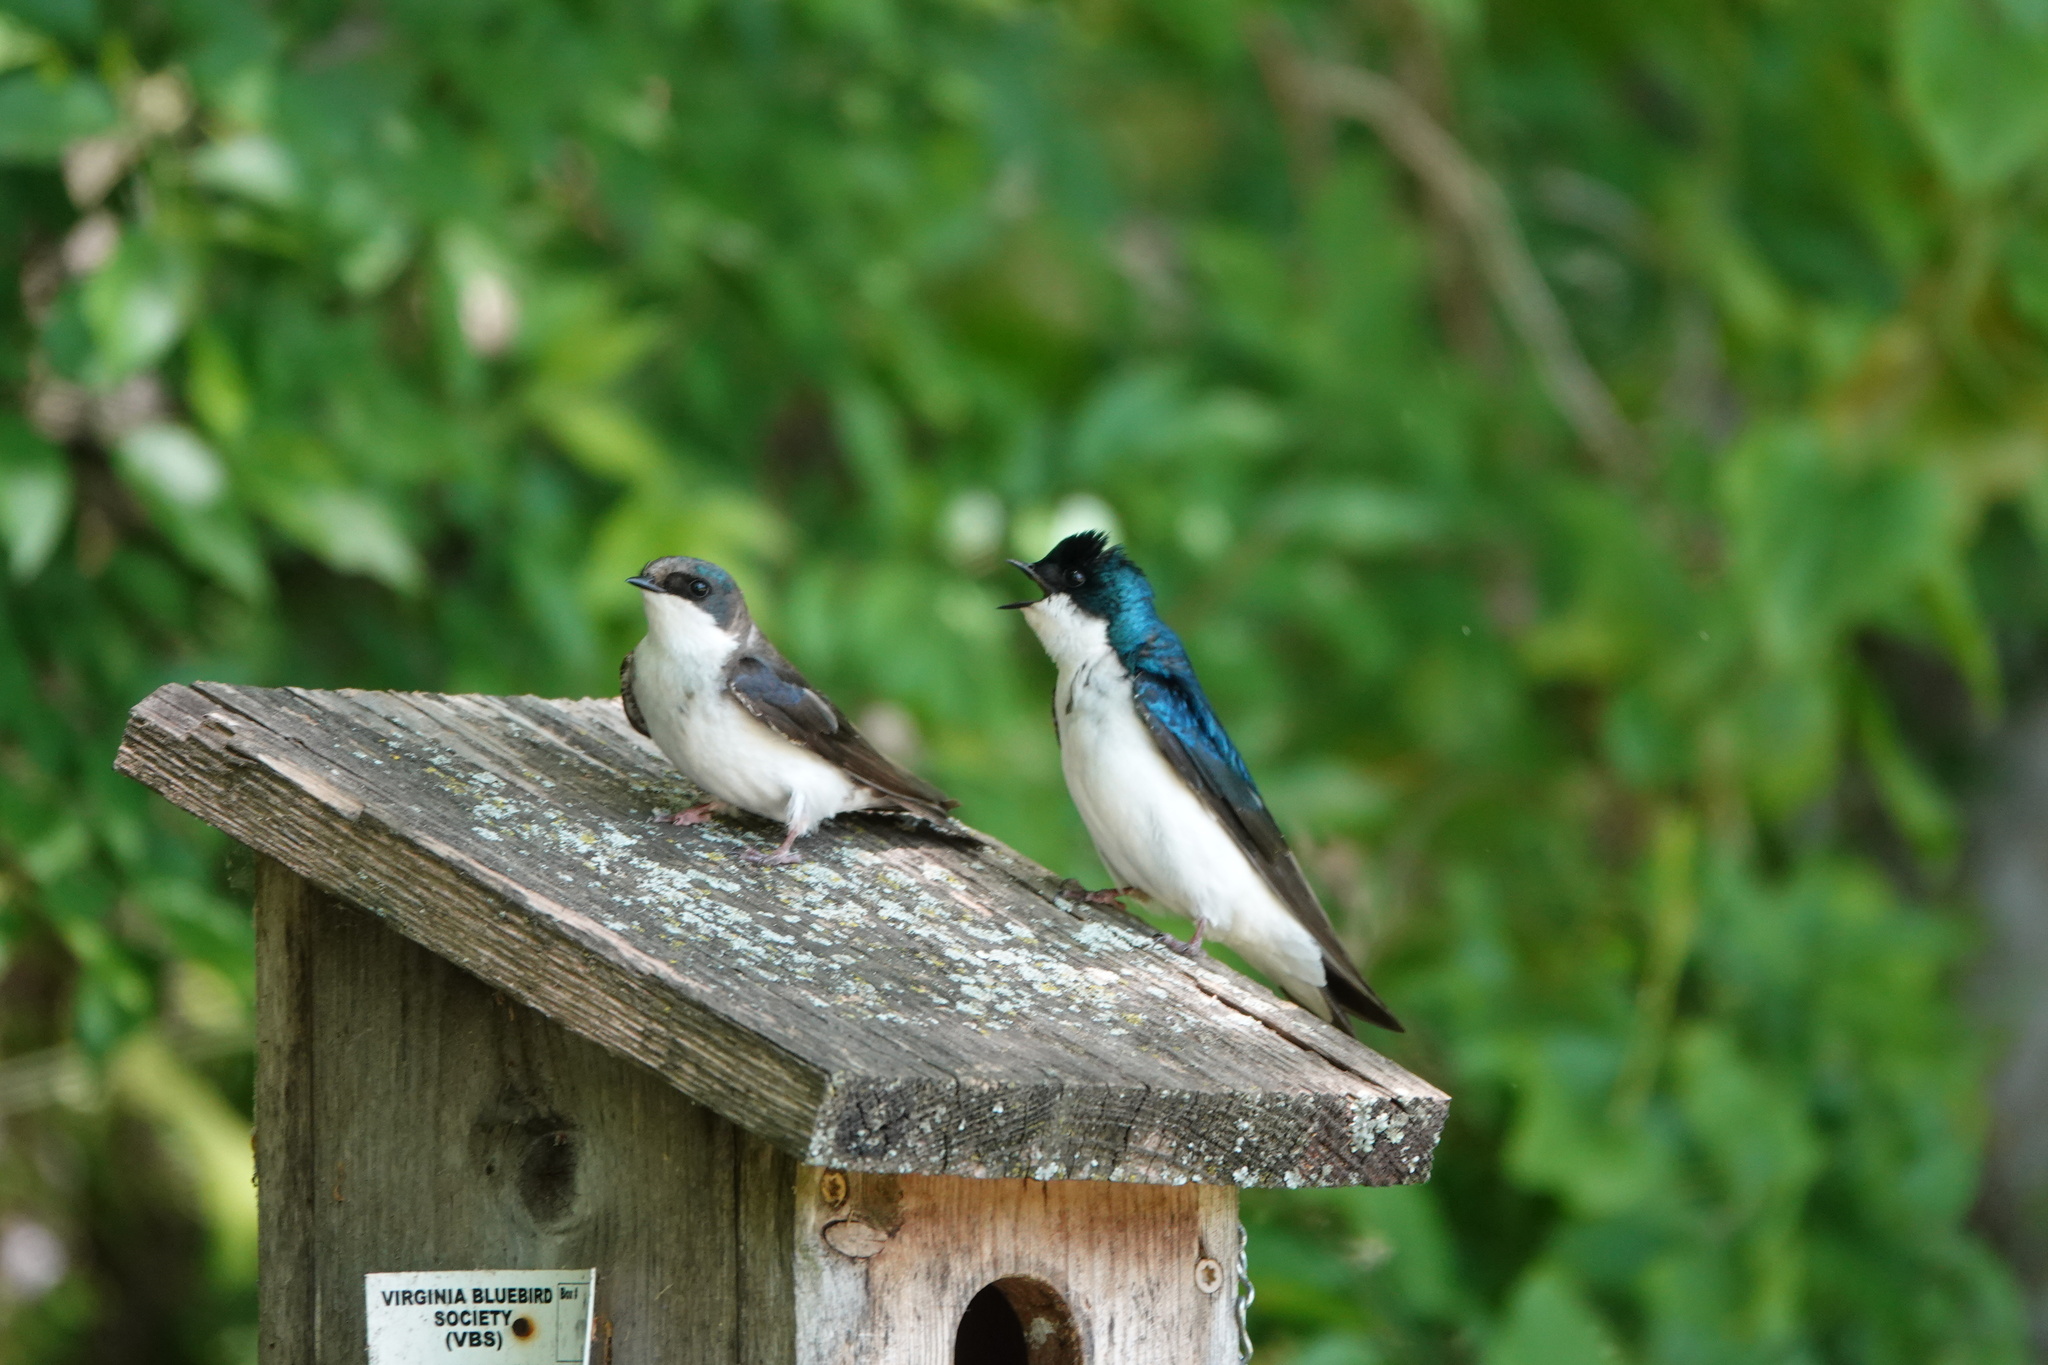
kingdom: Animalia
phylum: Chordata
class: Aves
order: Passeriformes
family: Hirundinidae
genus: Tachycineta
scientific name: Tachycineta bicolor
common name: Tree swallow
